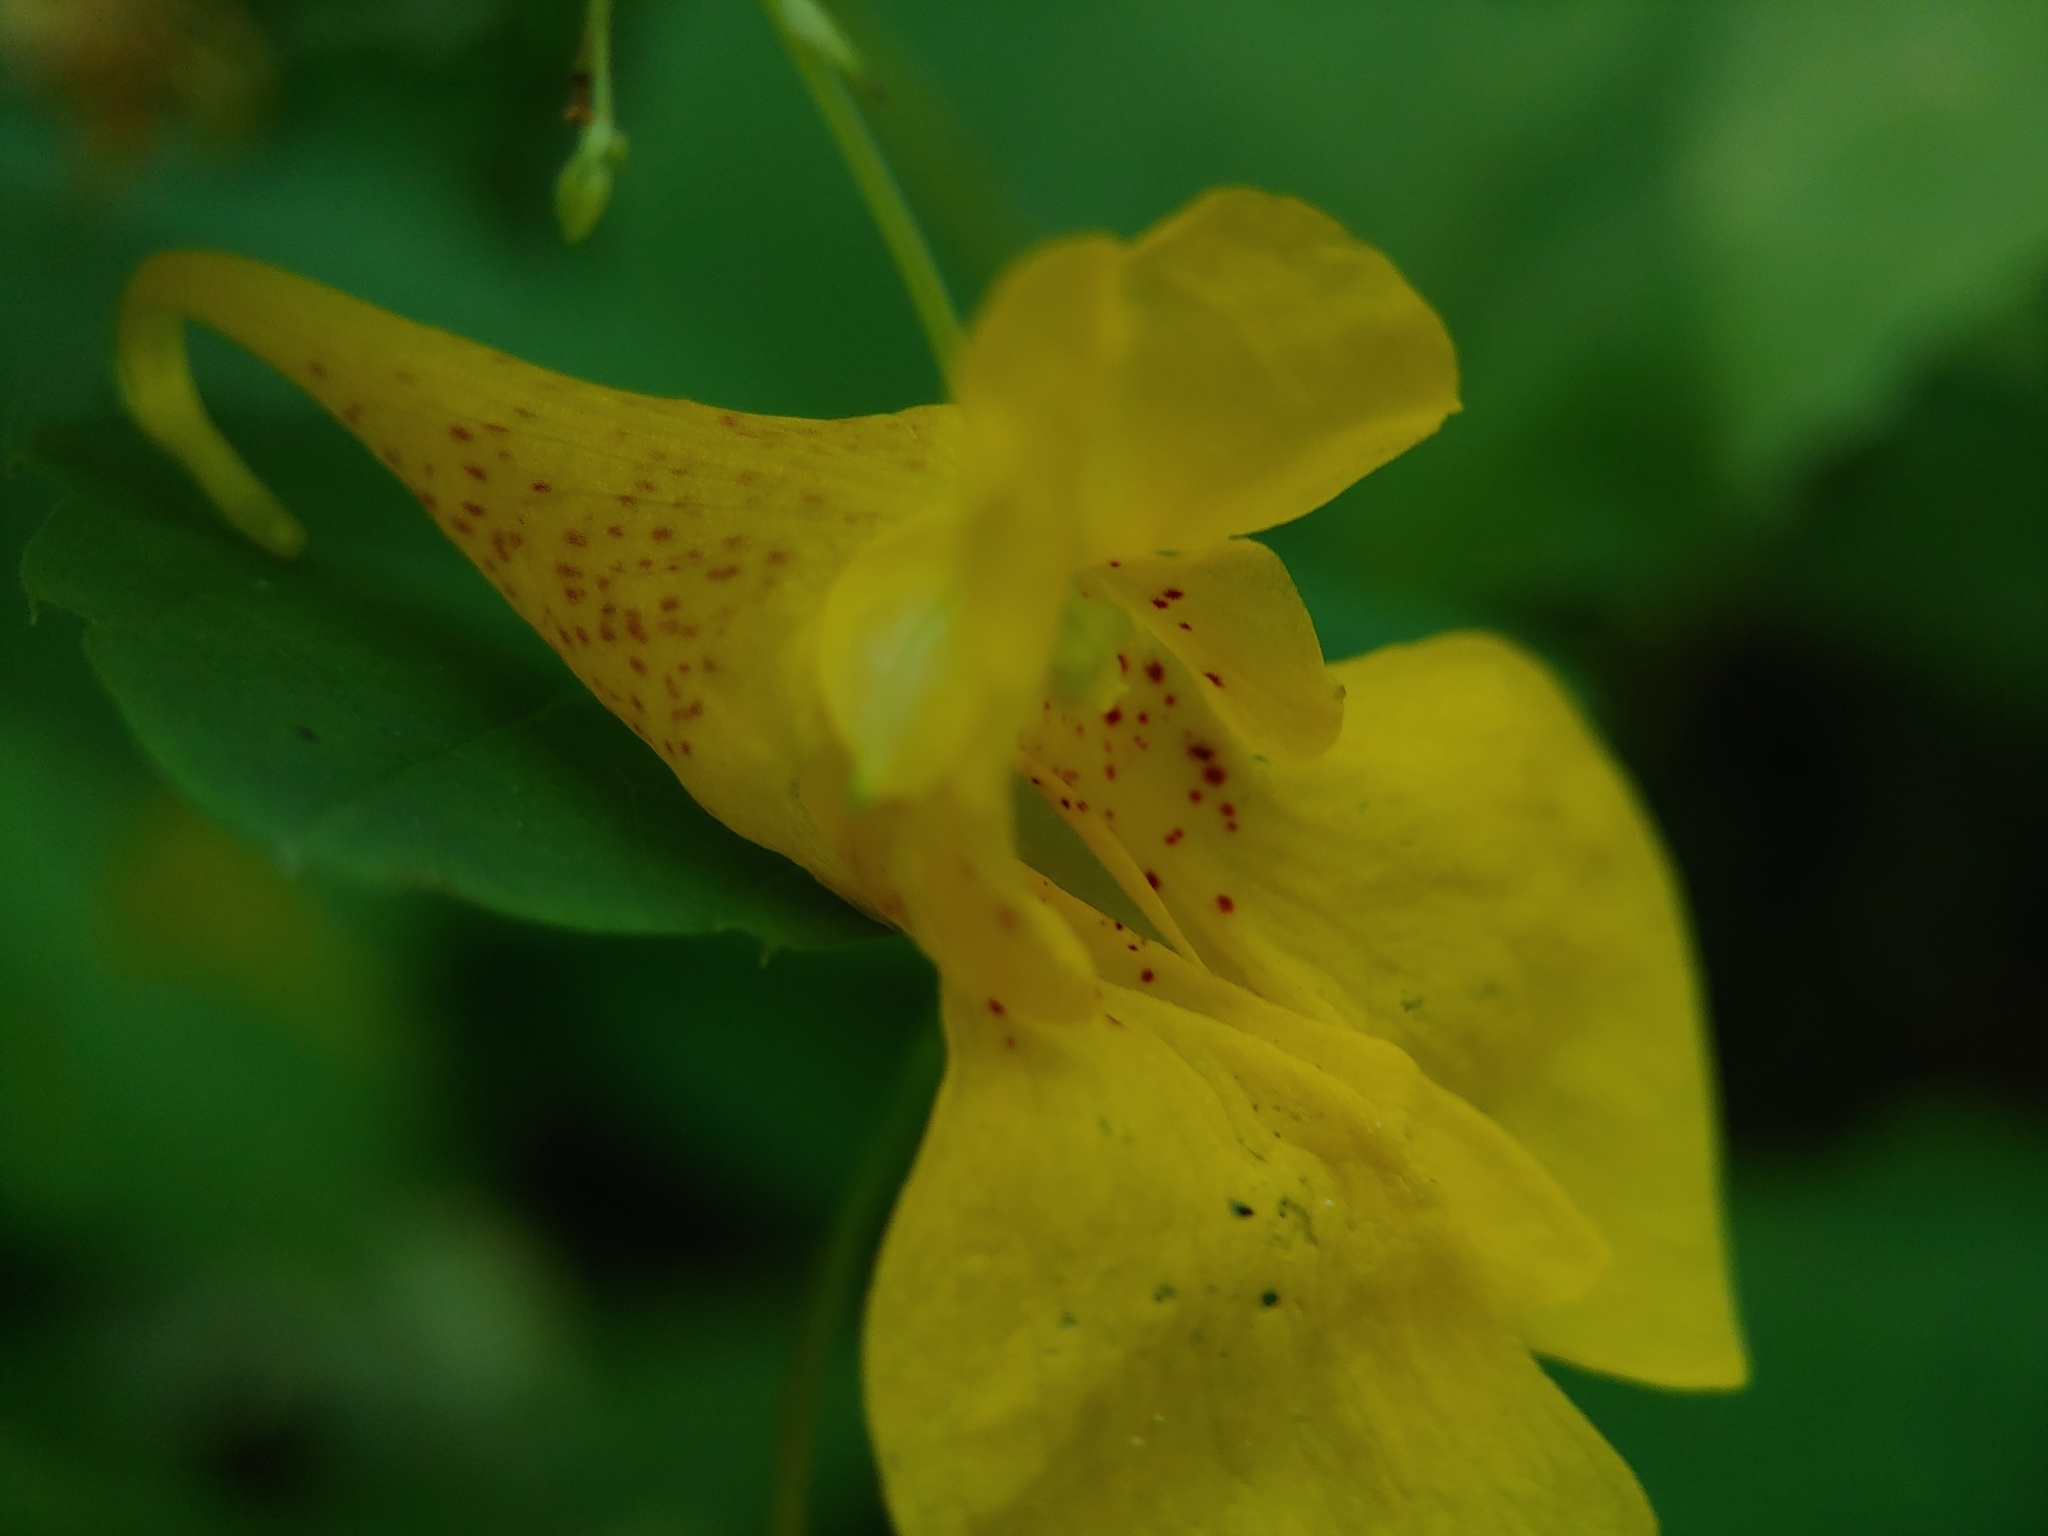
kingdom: Plantae
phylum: Tracheophyta
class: Magnoliopsida
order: Ericales
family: Balsaminaceae
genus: Impatiens
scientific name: Impatiens noli-tangere
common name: Touch-me-not balsam
